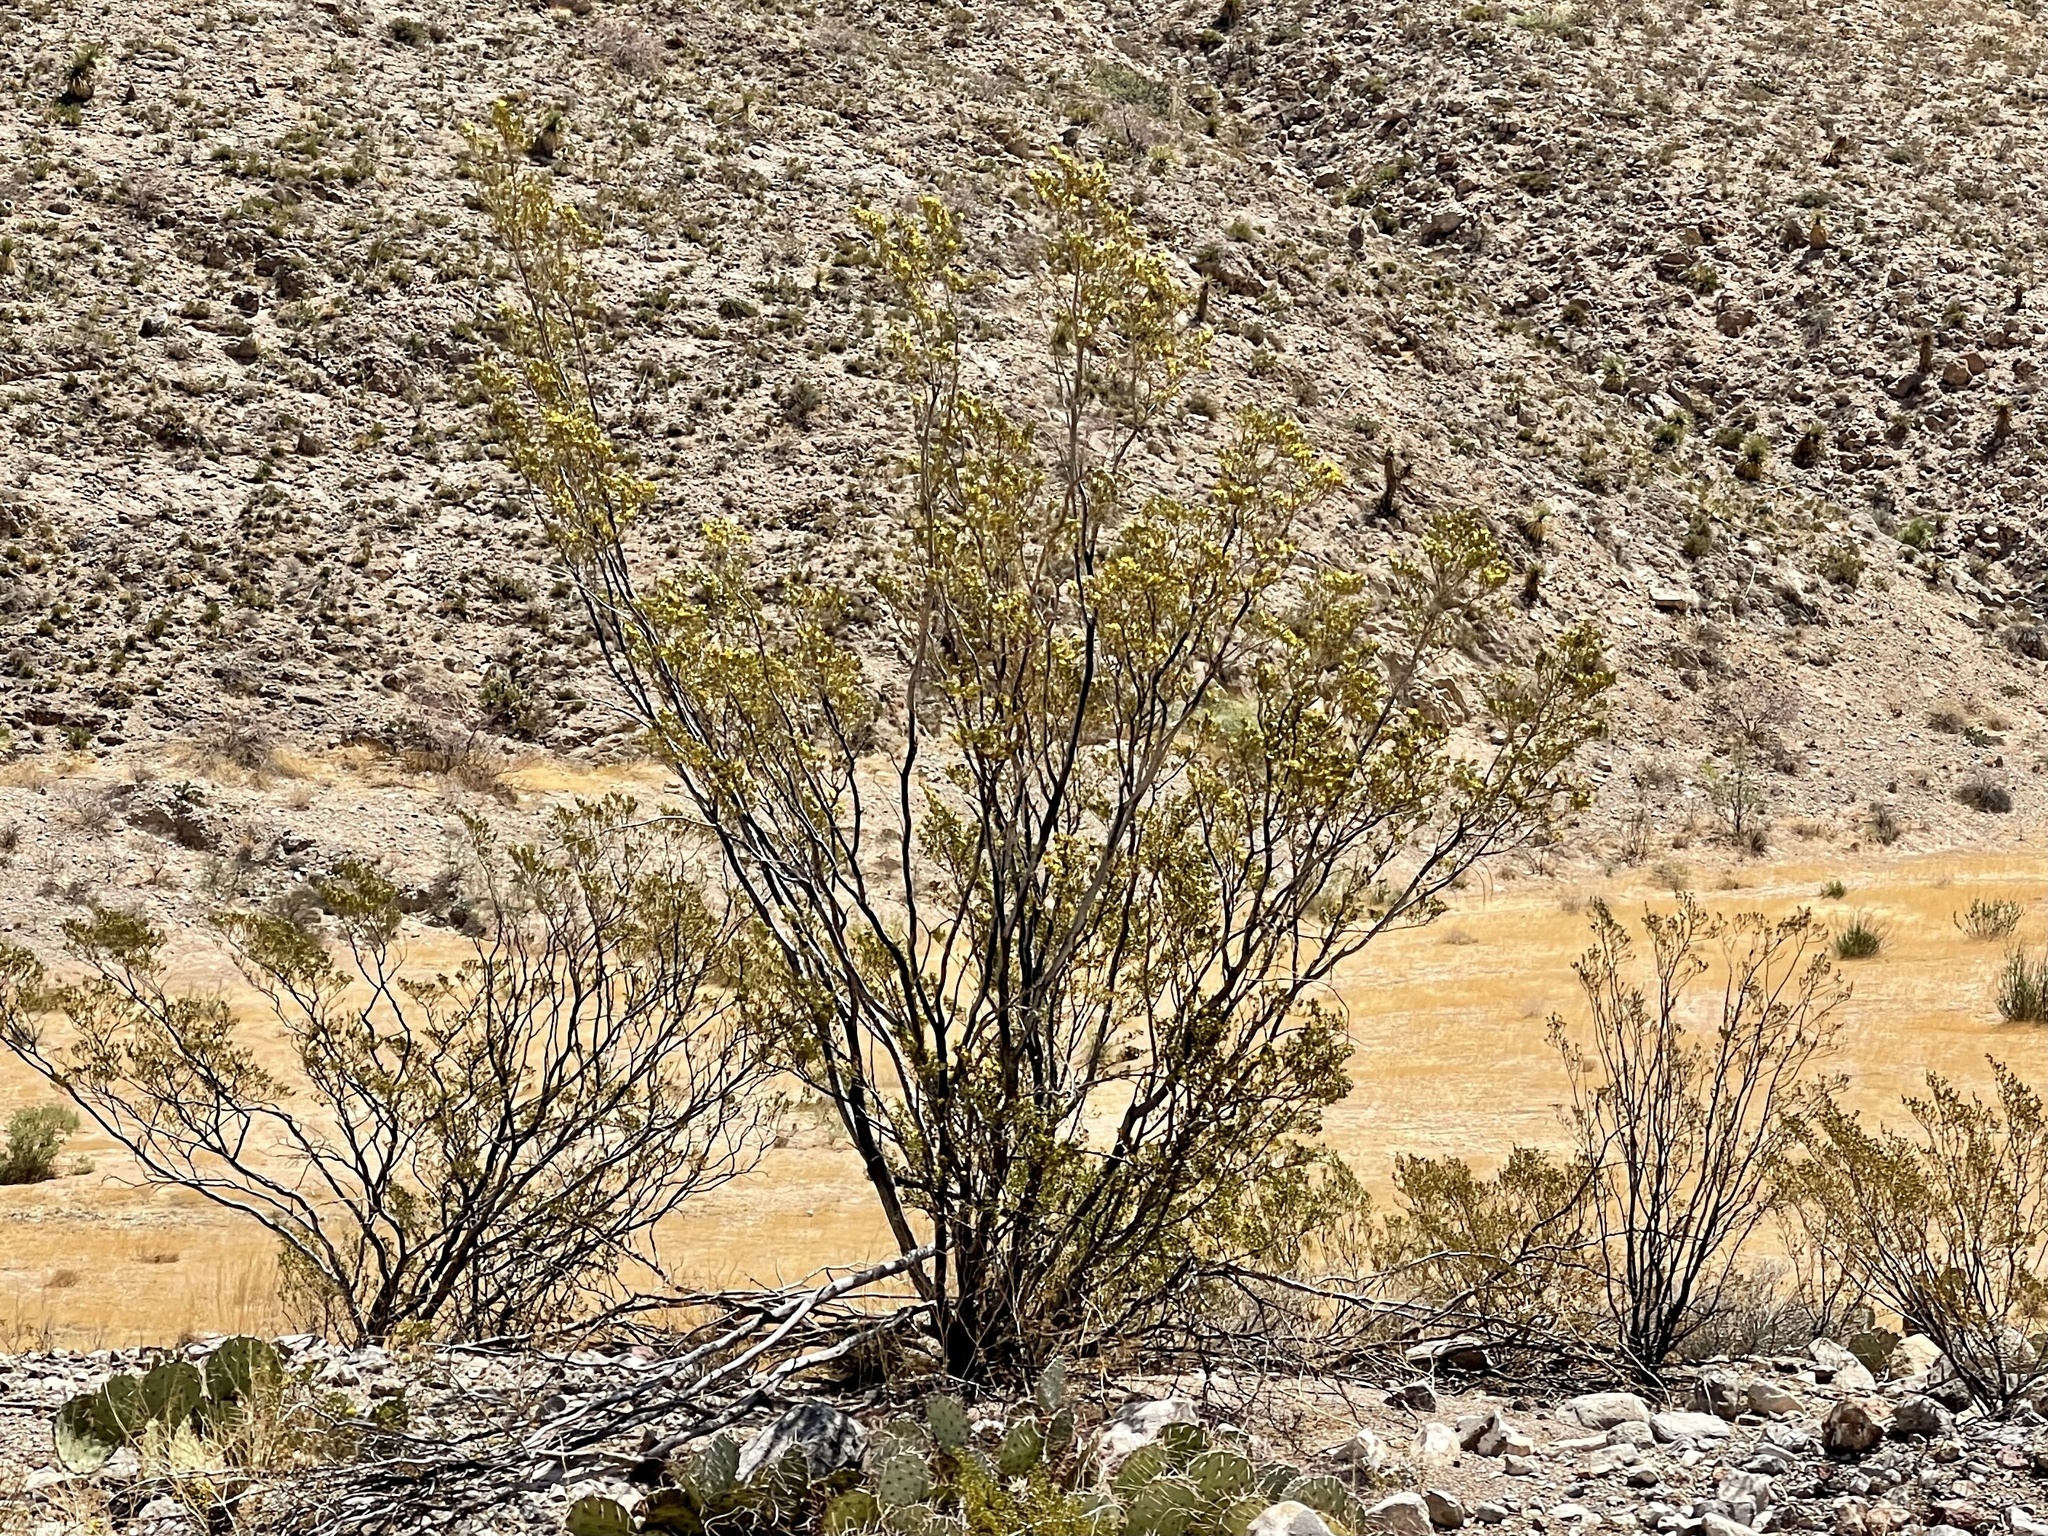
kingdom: Plantae
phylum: Tracheophyta
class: Magnoliopsida
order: Zygophyllales
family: Zygophyllaceae
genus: Larrea
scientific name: Larrea tridentata
